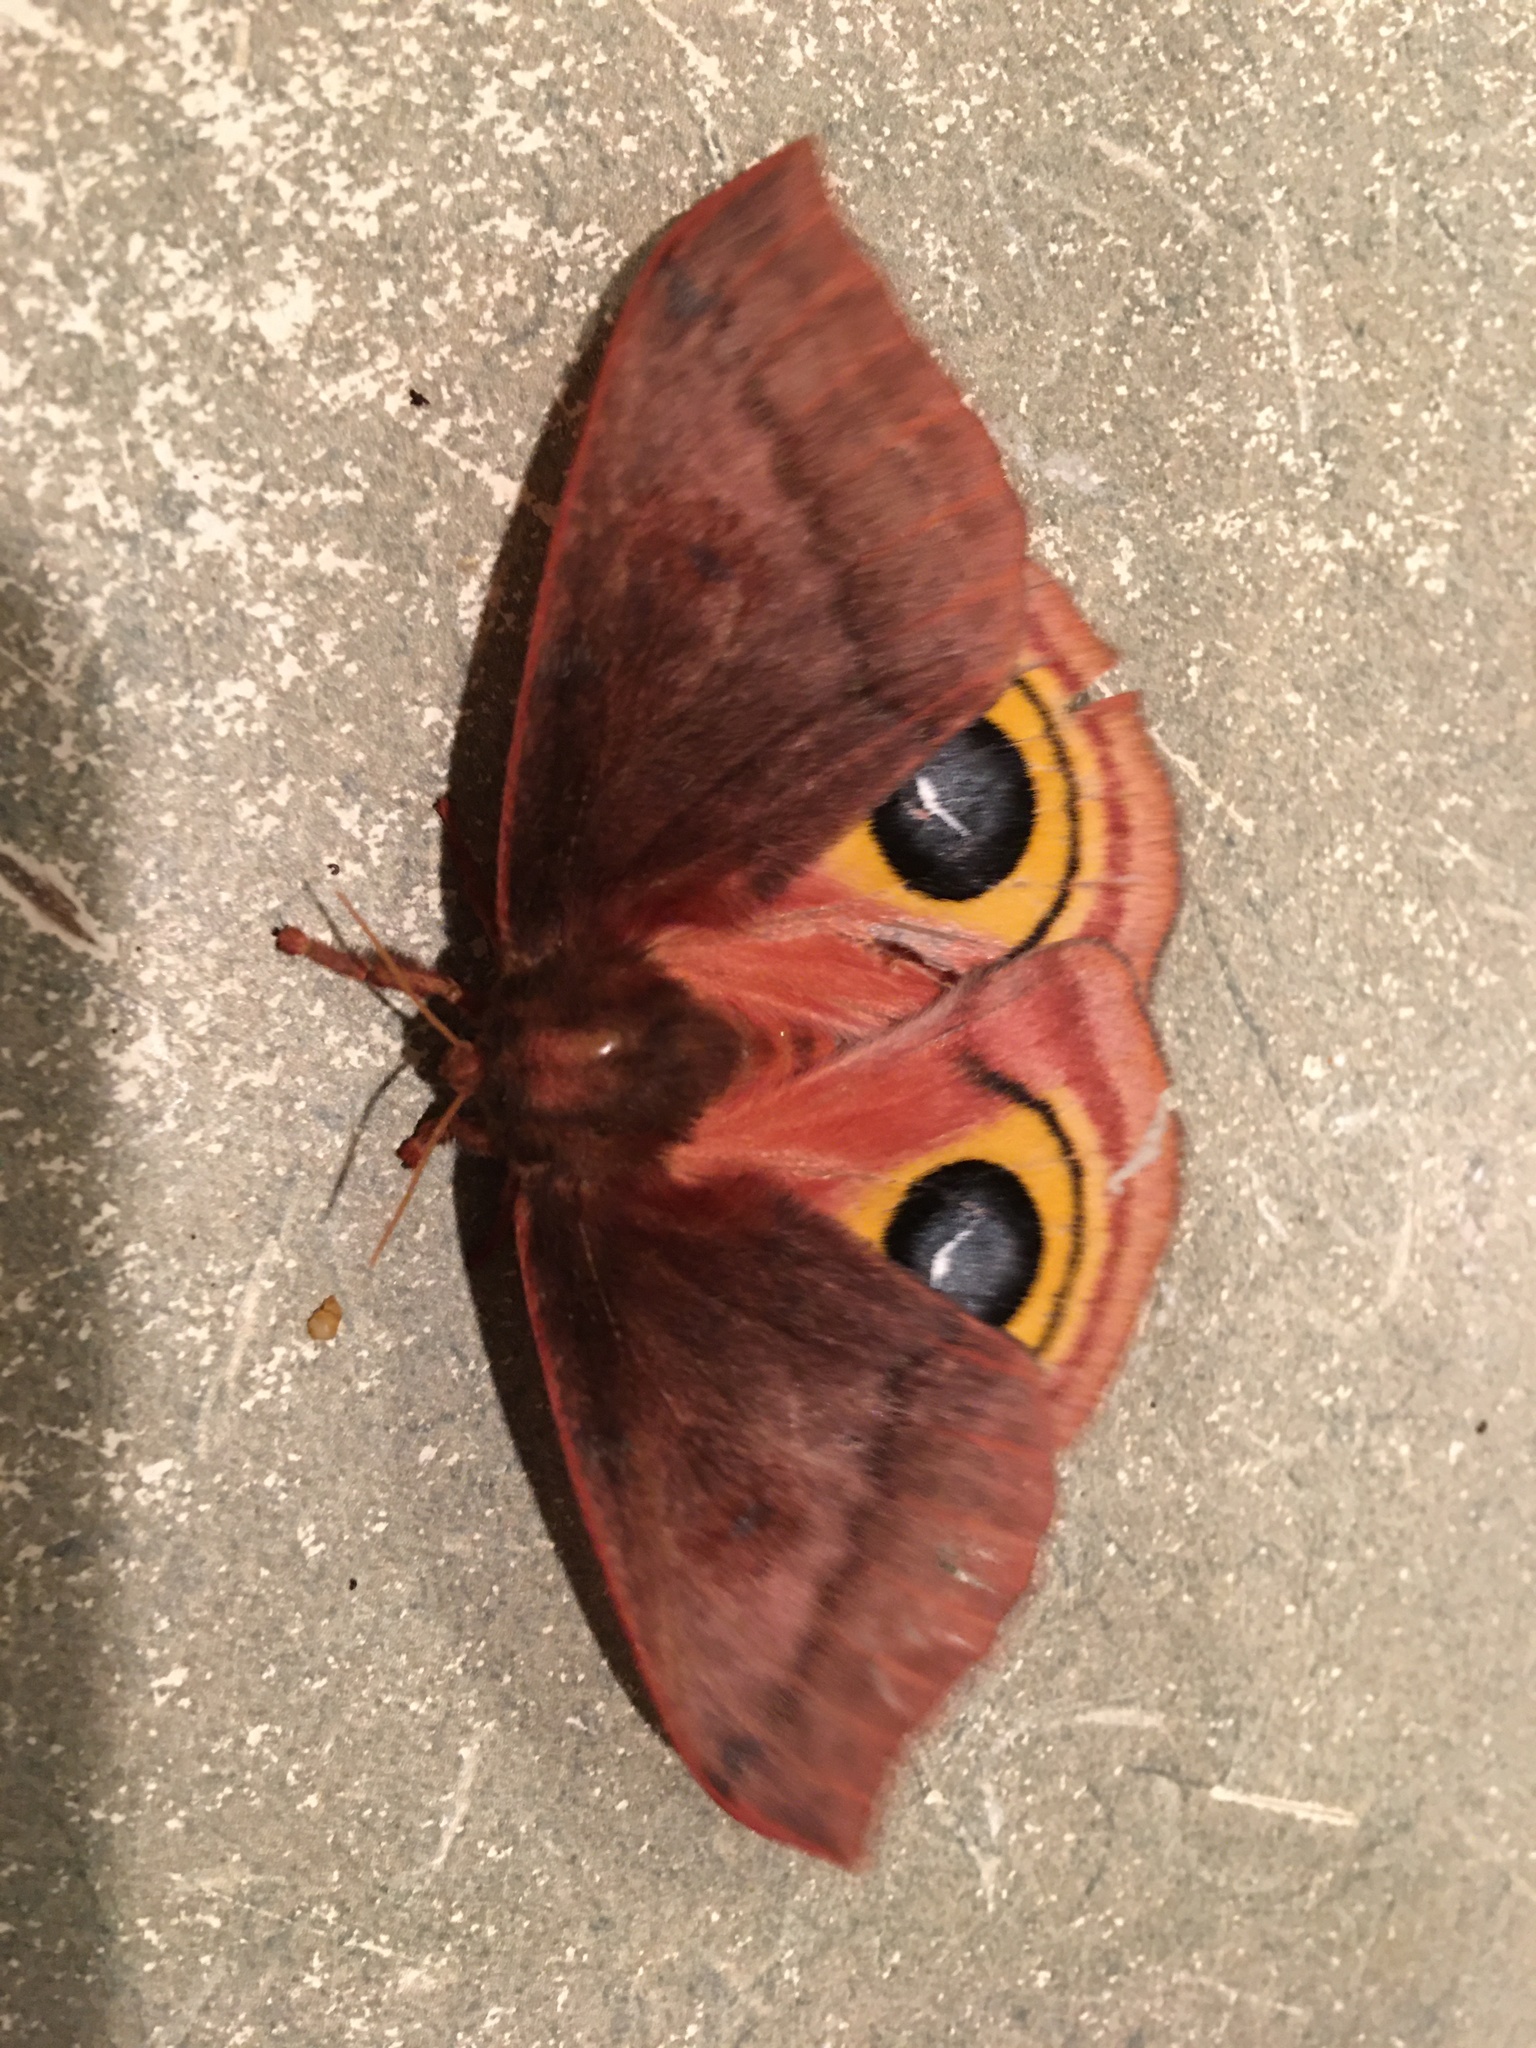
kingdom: Animalia
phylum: Arthropoda
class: Insecta
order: Lepidoptera
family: Saturniidae
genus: Automeris
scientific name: Automeris io
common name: Io moth
